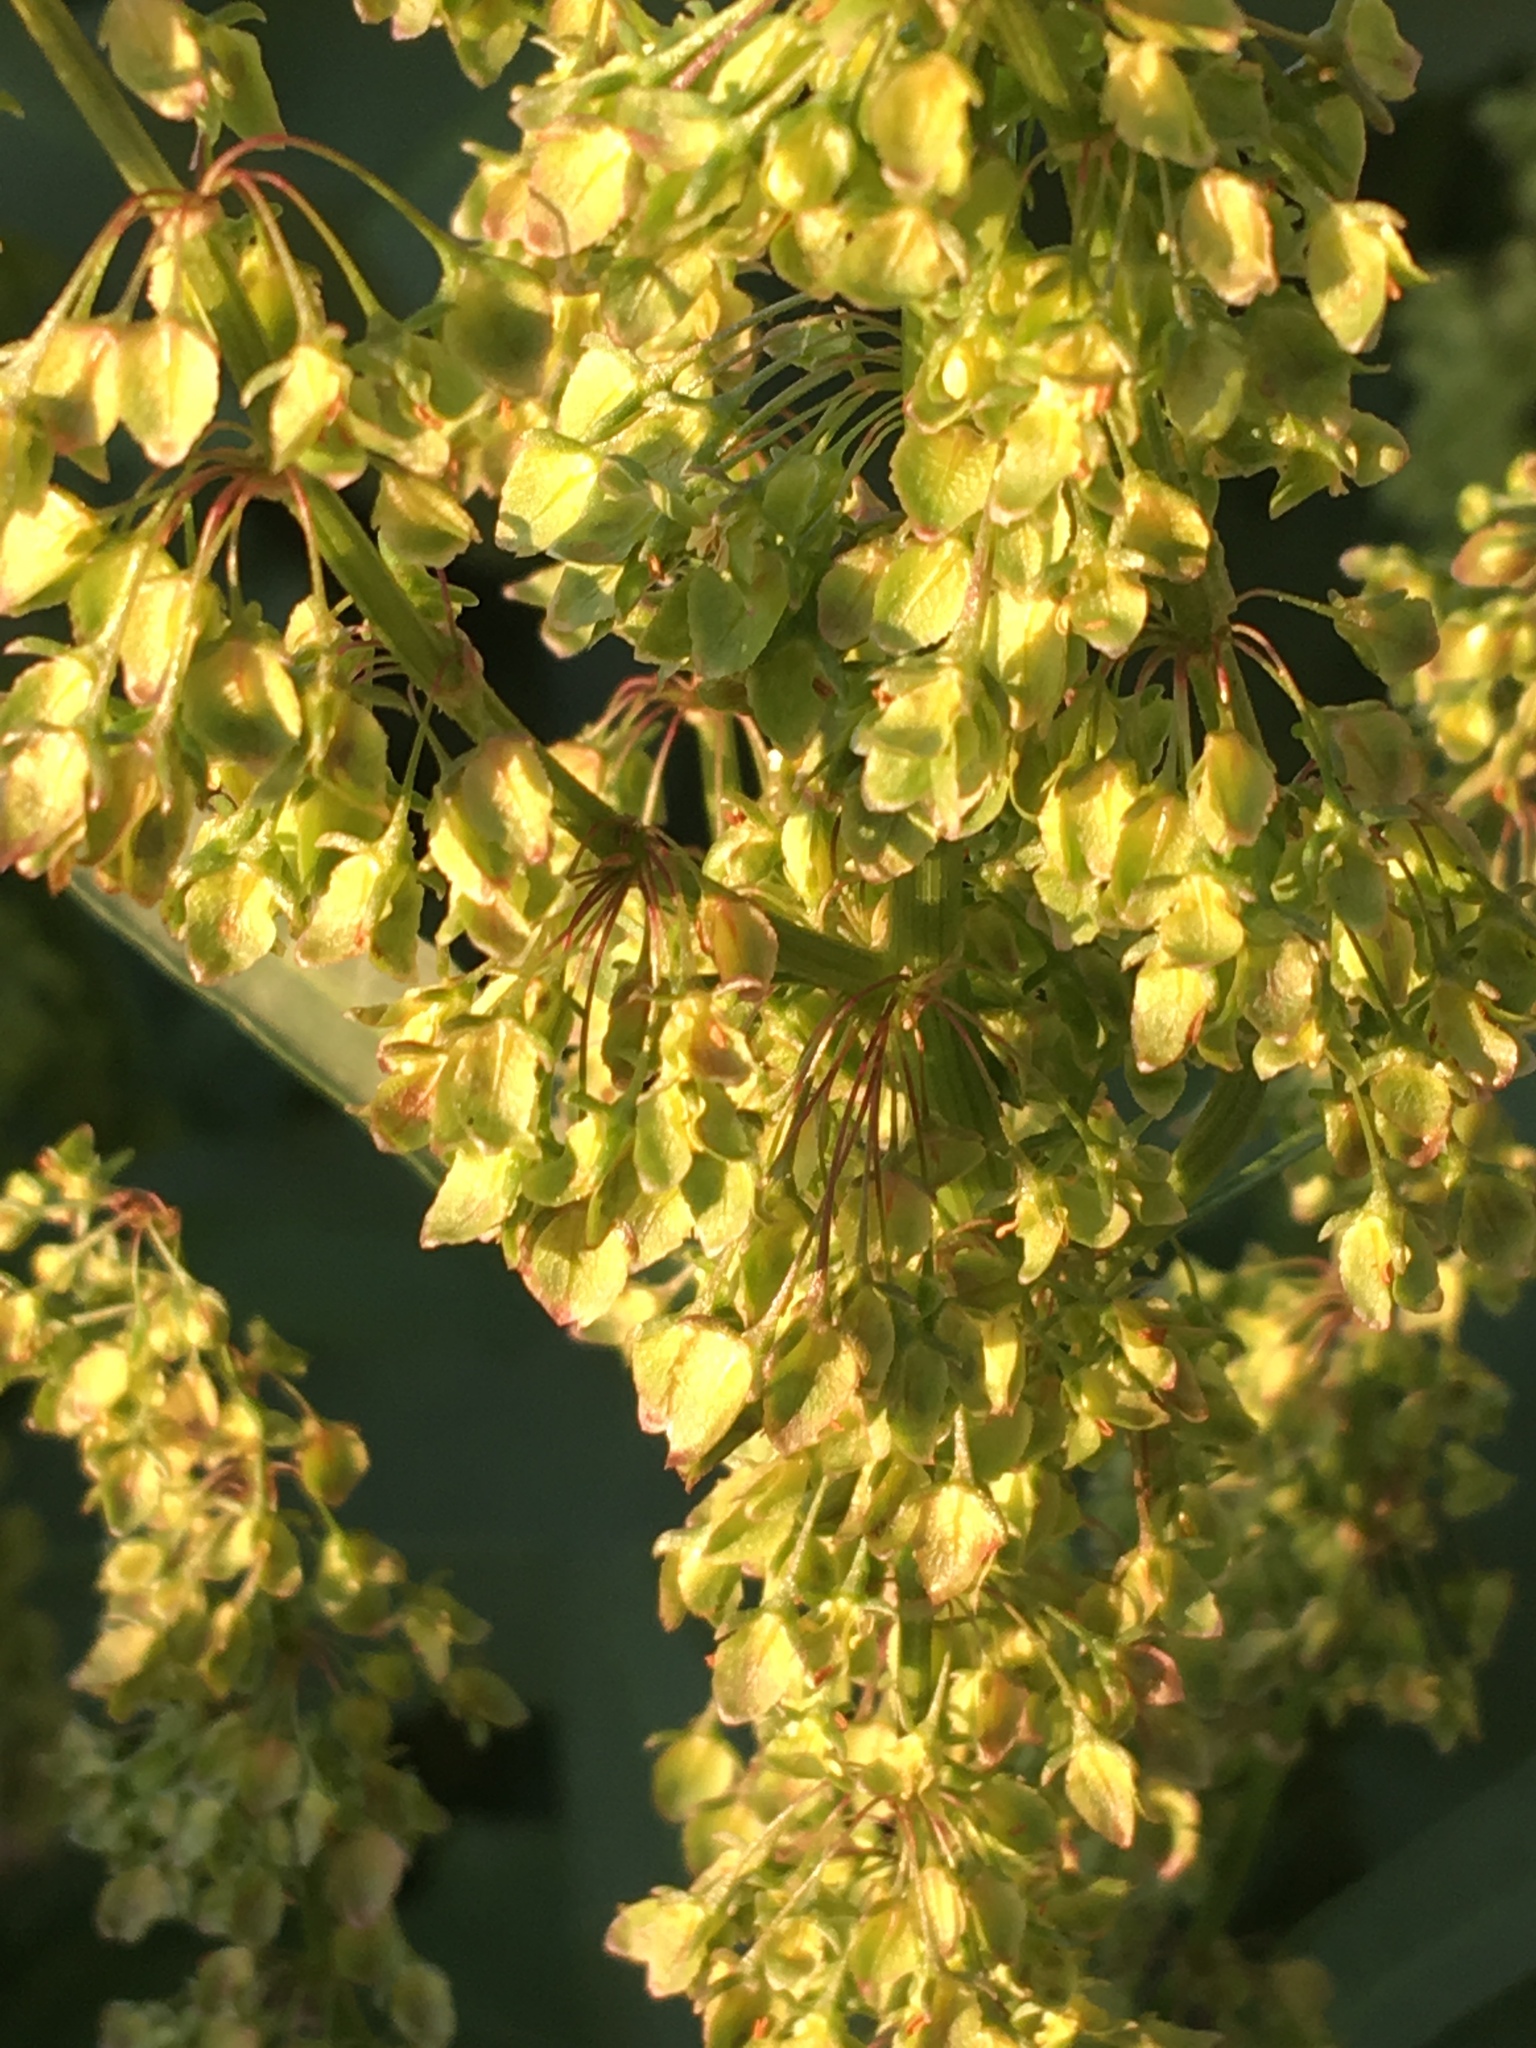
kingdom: Plantae
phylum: Tracheophyta
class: Magnoliopsida
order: Caryophyllales
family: Polygonaceae
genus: Rumex
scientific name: Rumex crispus
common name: Curled dock
